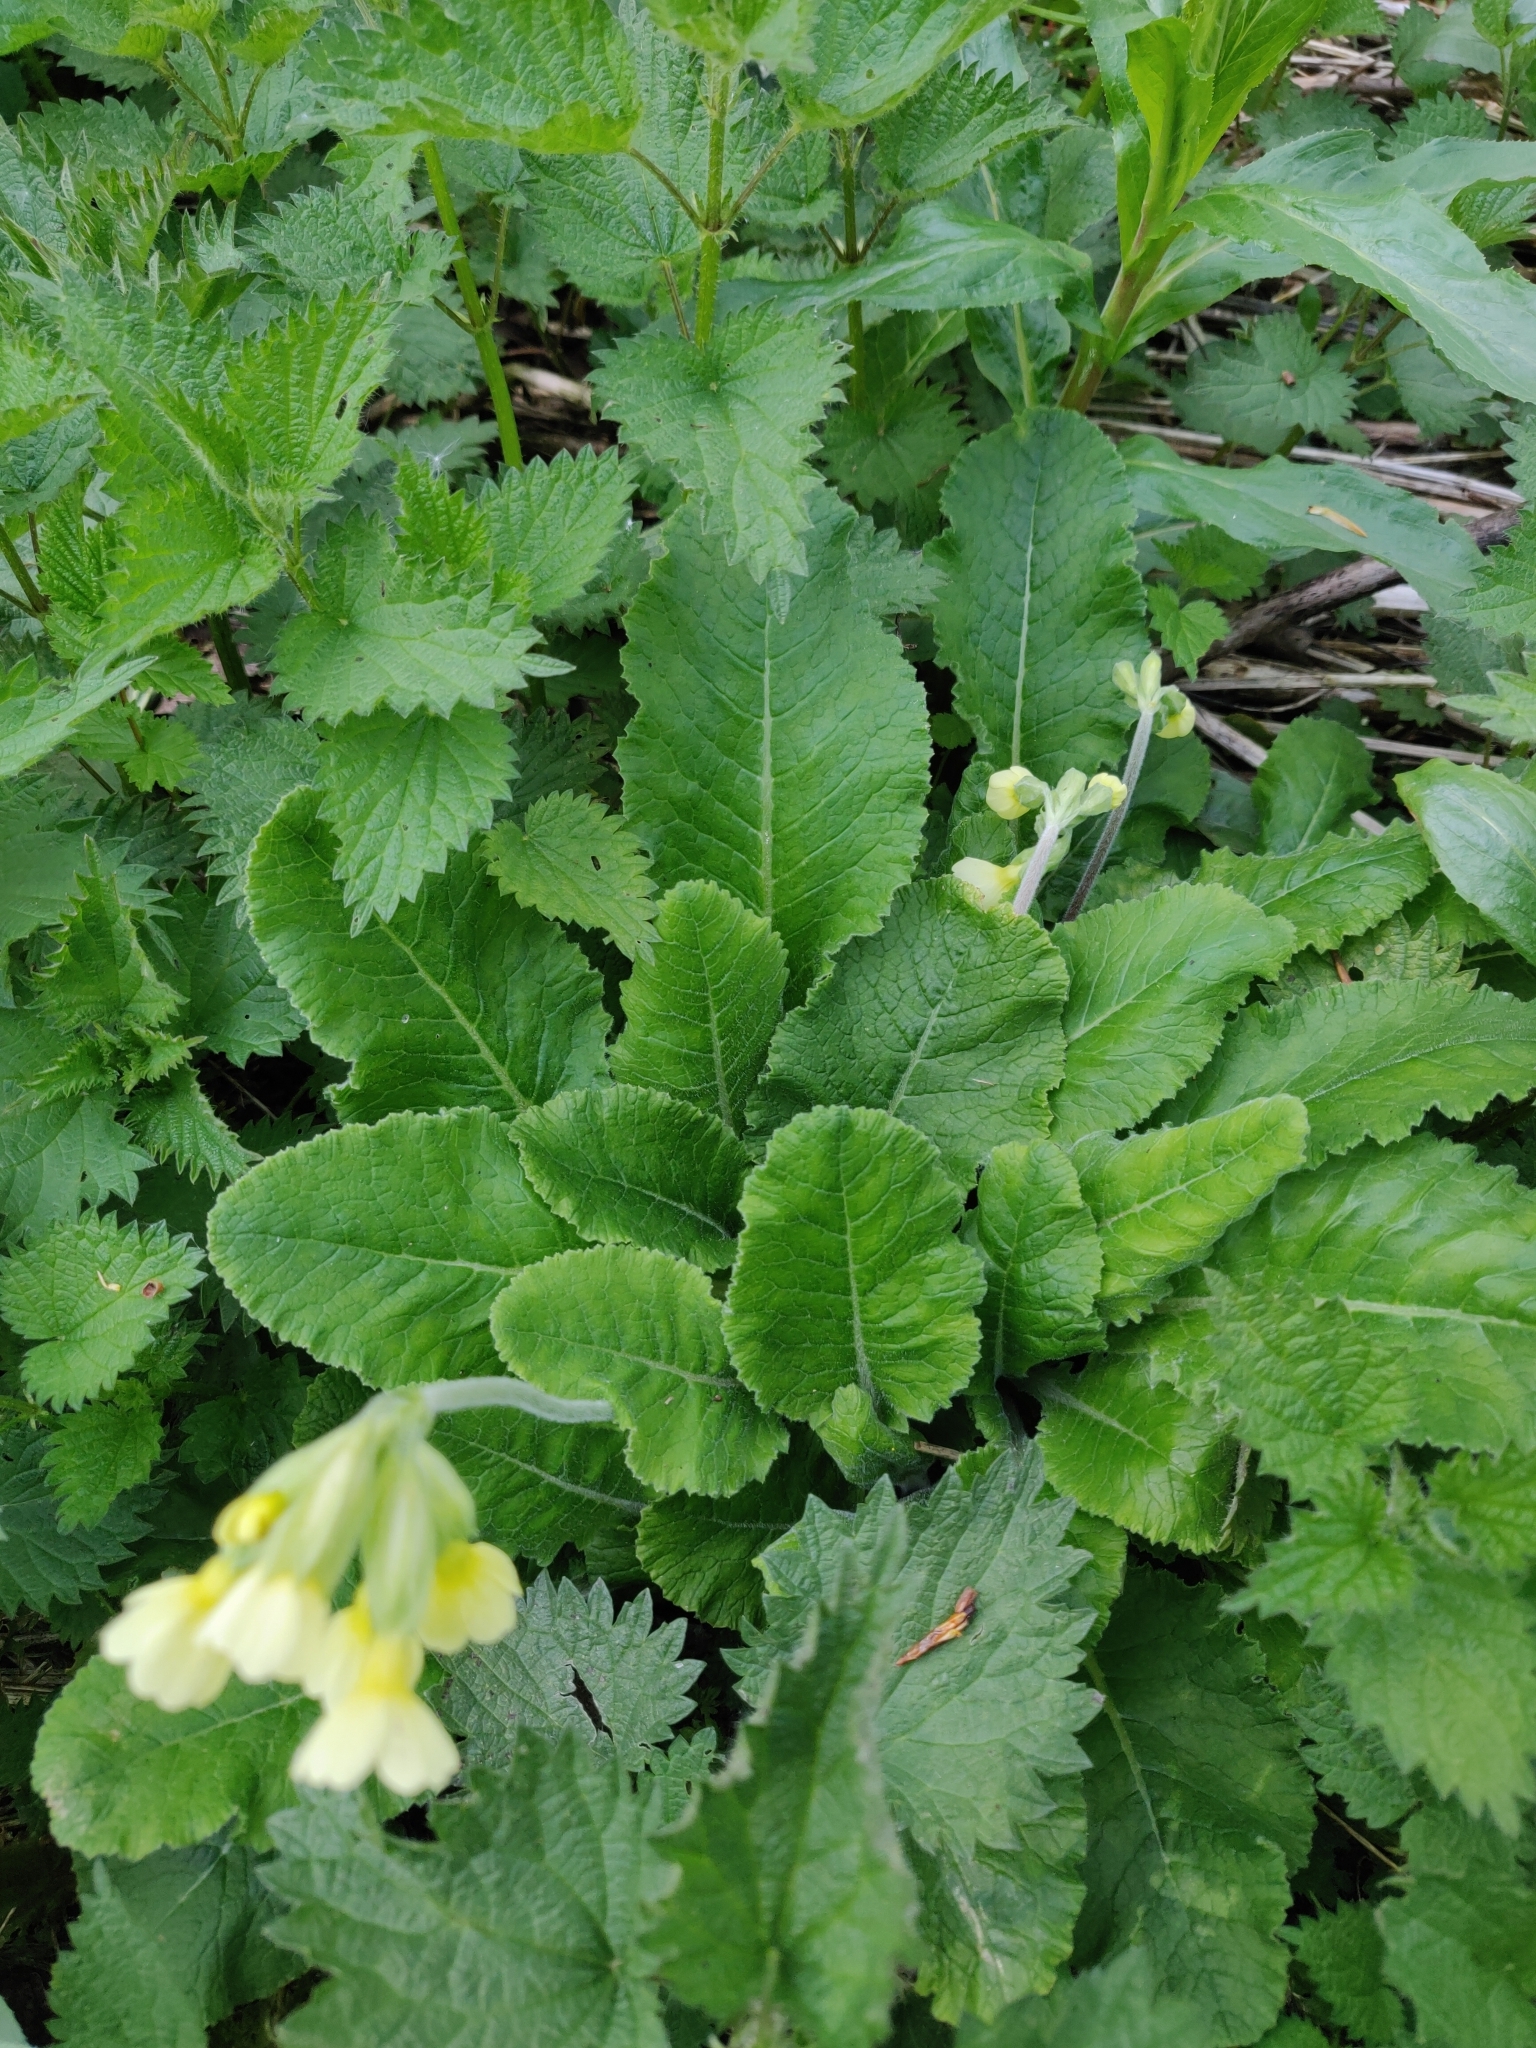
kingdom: Plantae
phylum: Tracheophyta
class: Magnoliopsida
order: Ericales
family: Primulaceae
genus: Primula
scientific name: Primula elatior
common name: Oxlip
